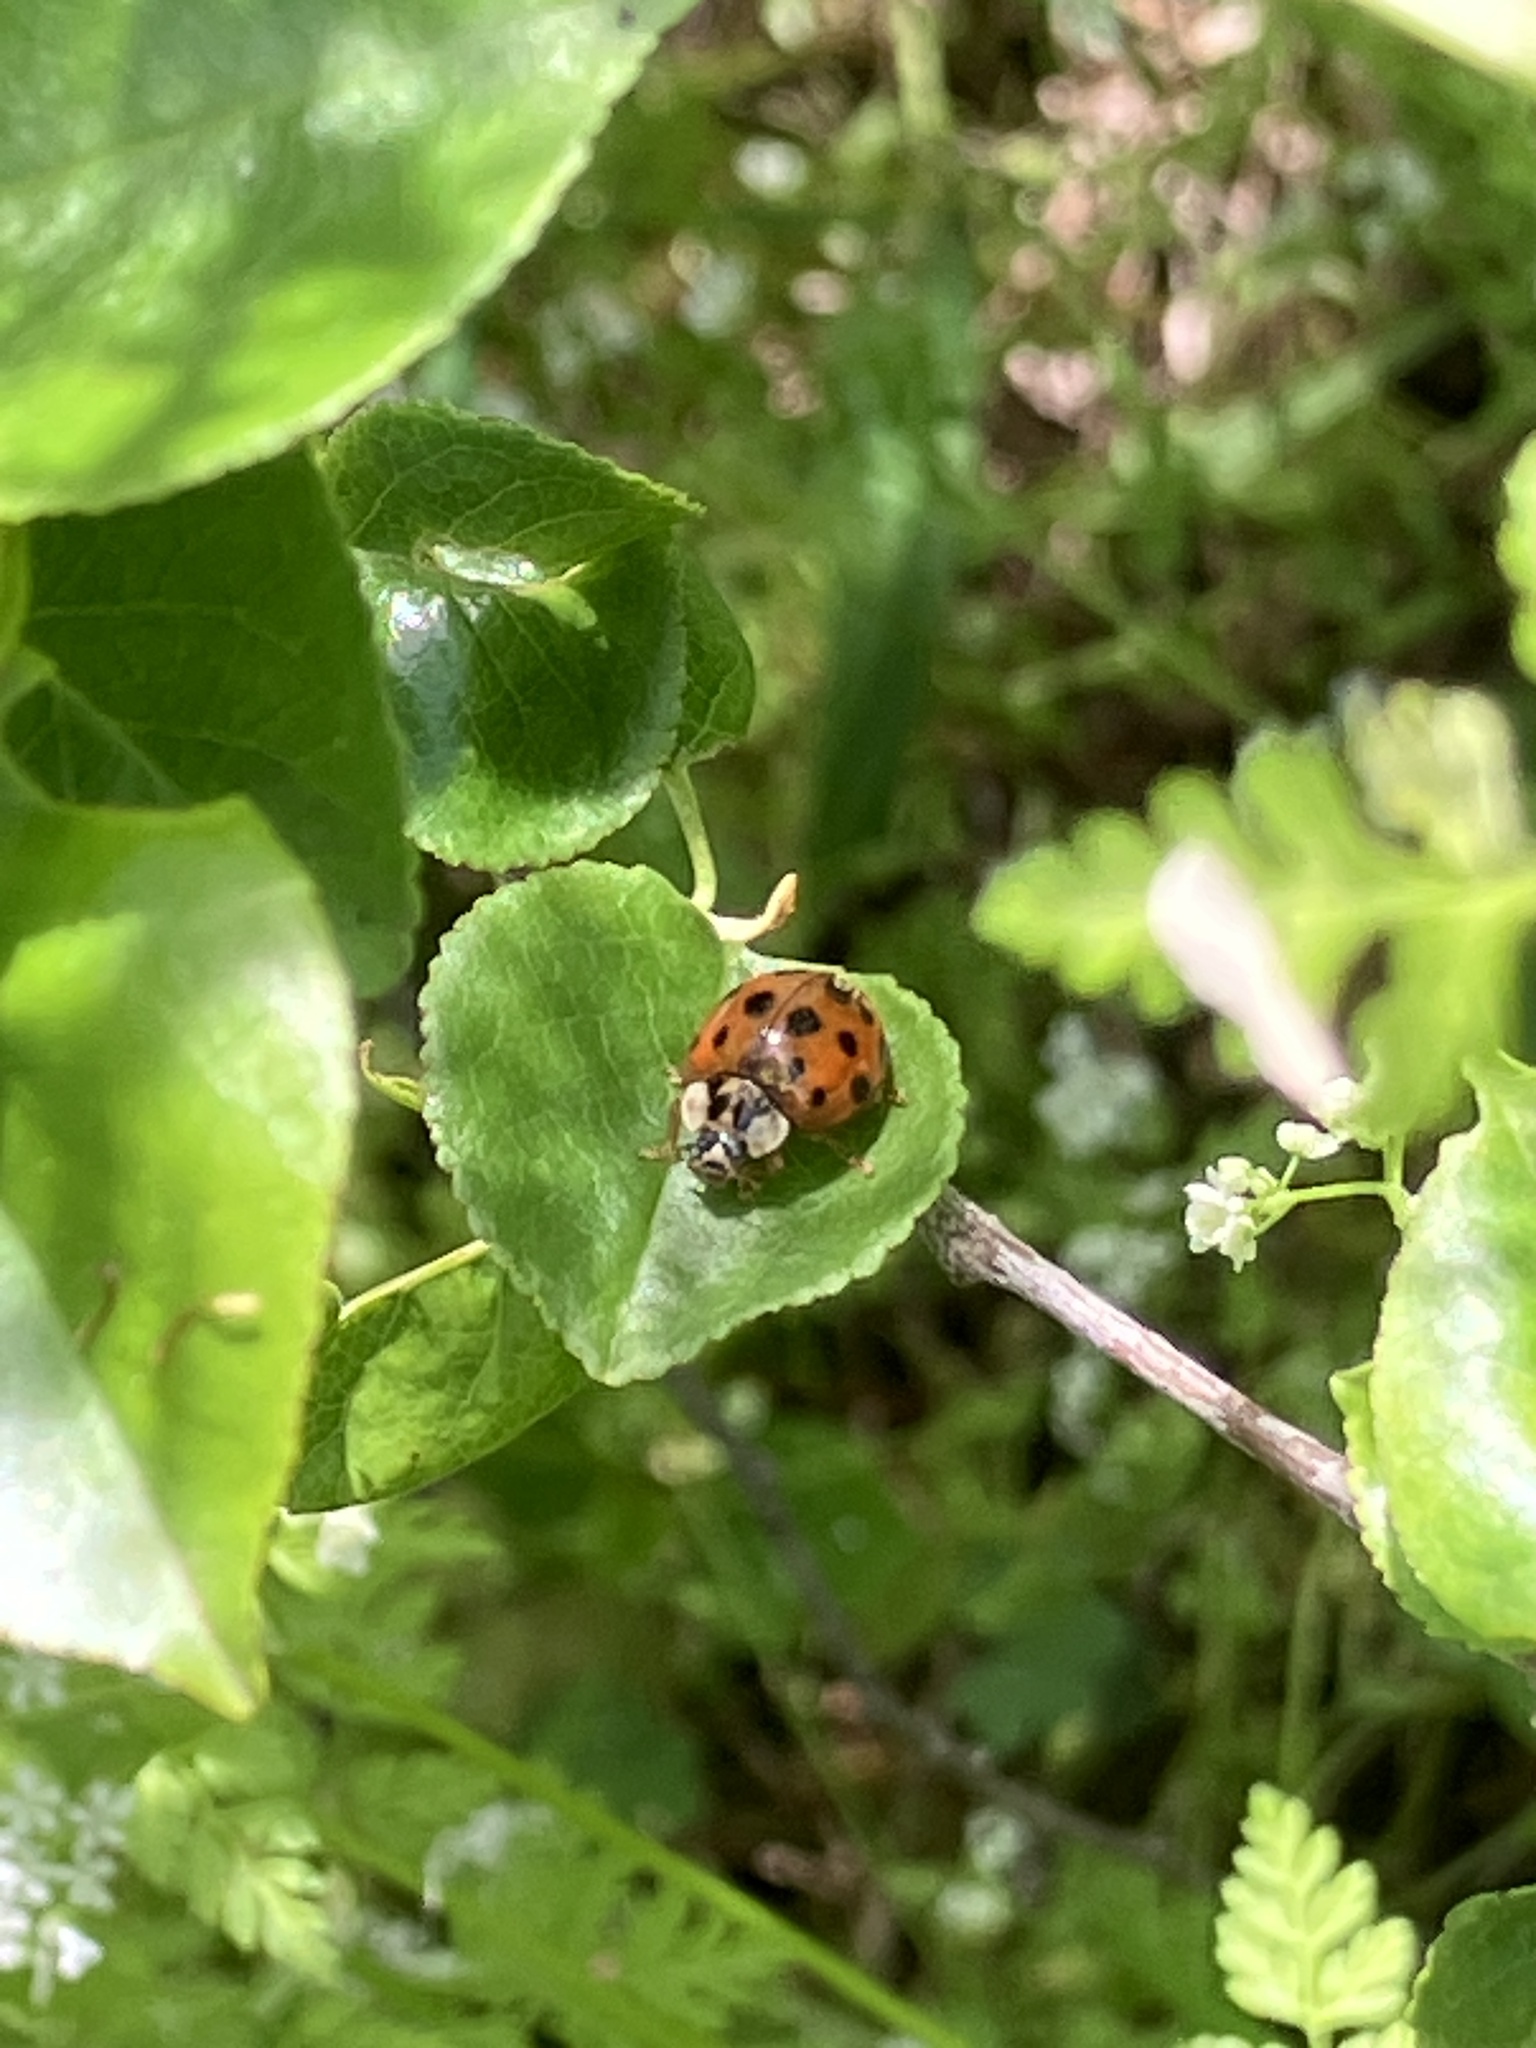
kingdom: Animalia
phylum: Arthropoda
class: Insecta
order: Coleoptera
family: Coccinellidae
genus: Harmonia
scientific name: Harmonia axyridis
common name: Harlequin ladybird
